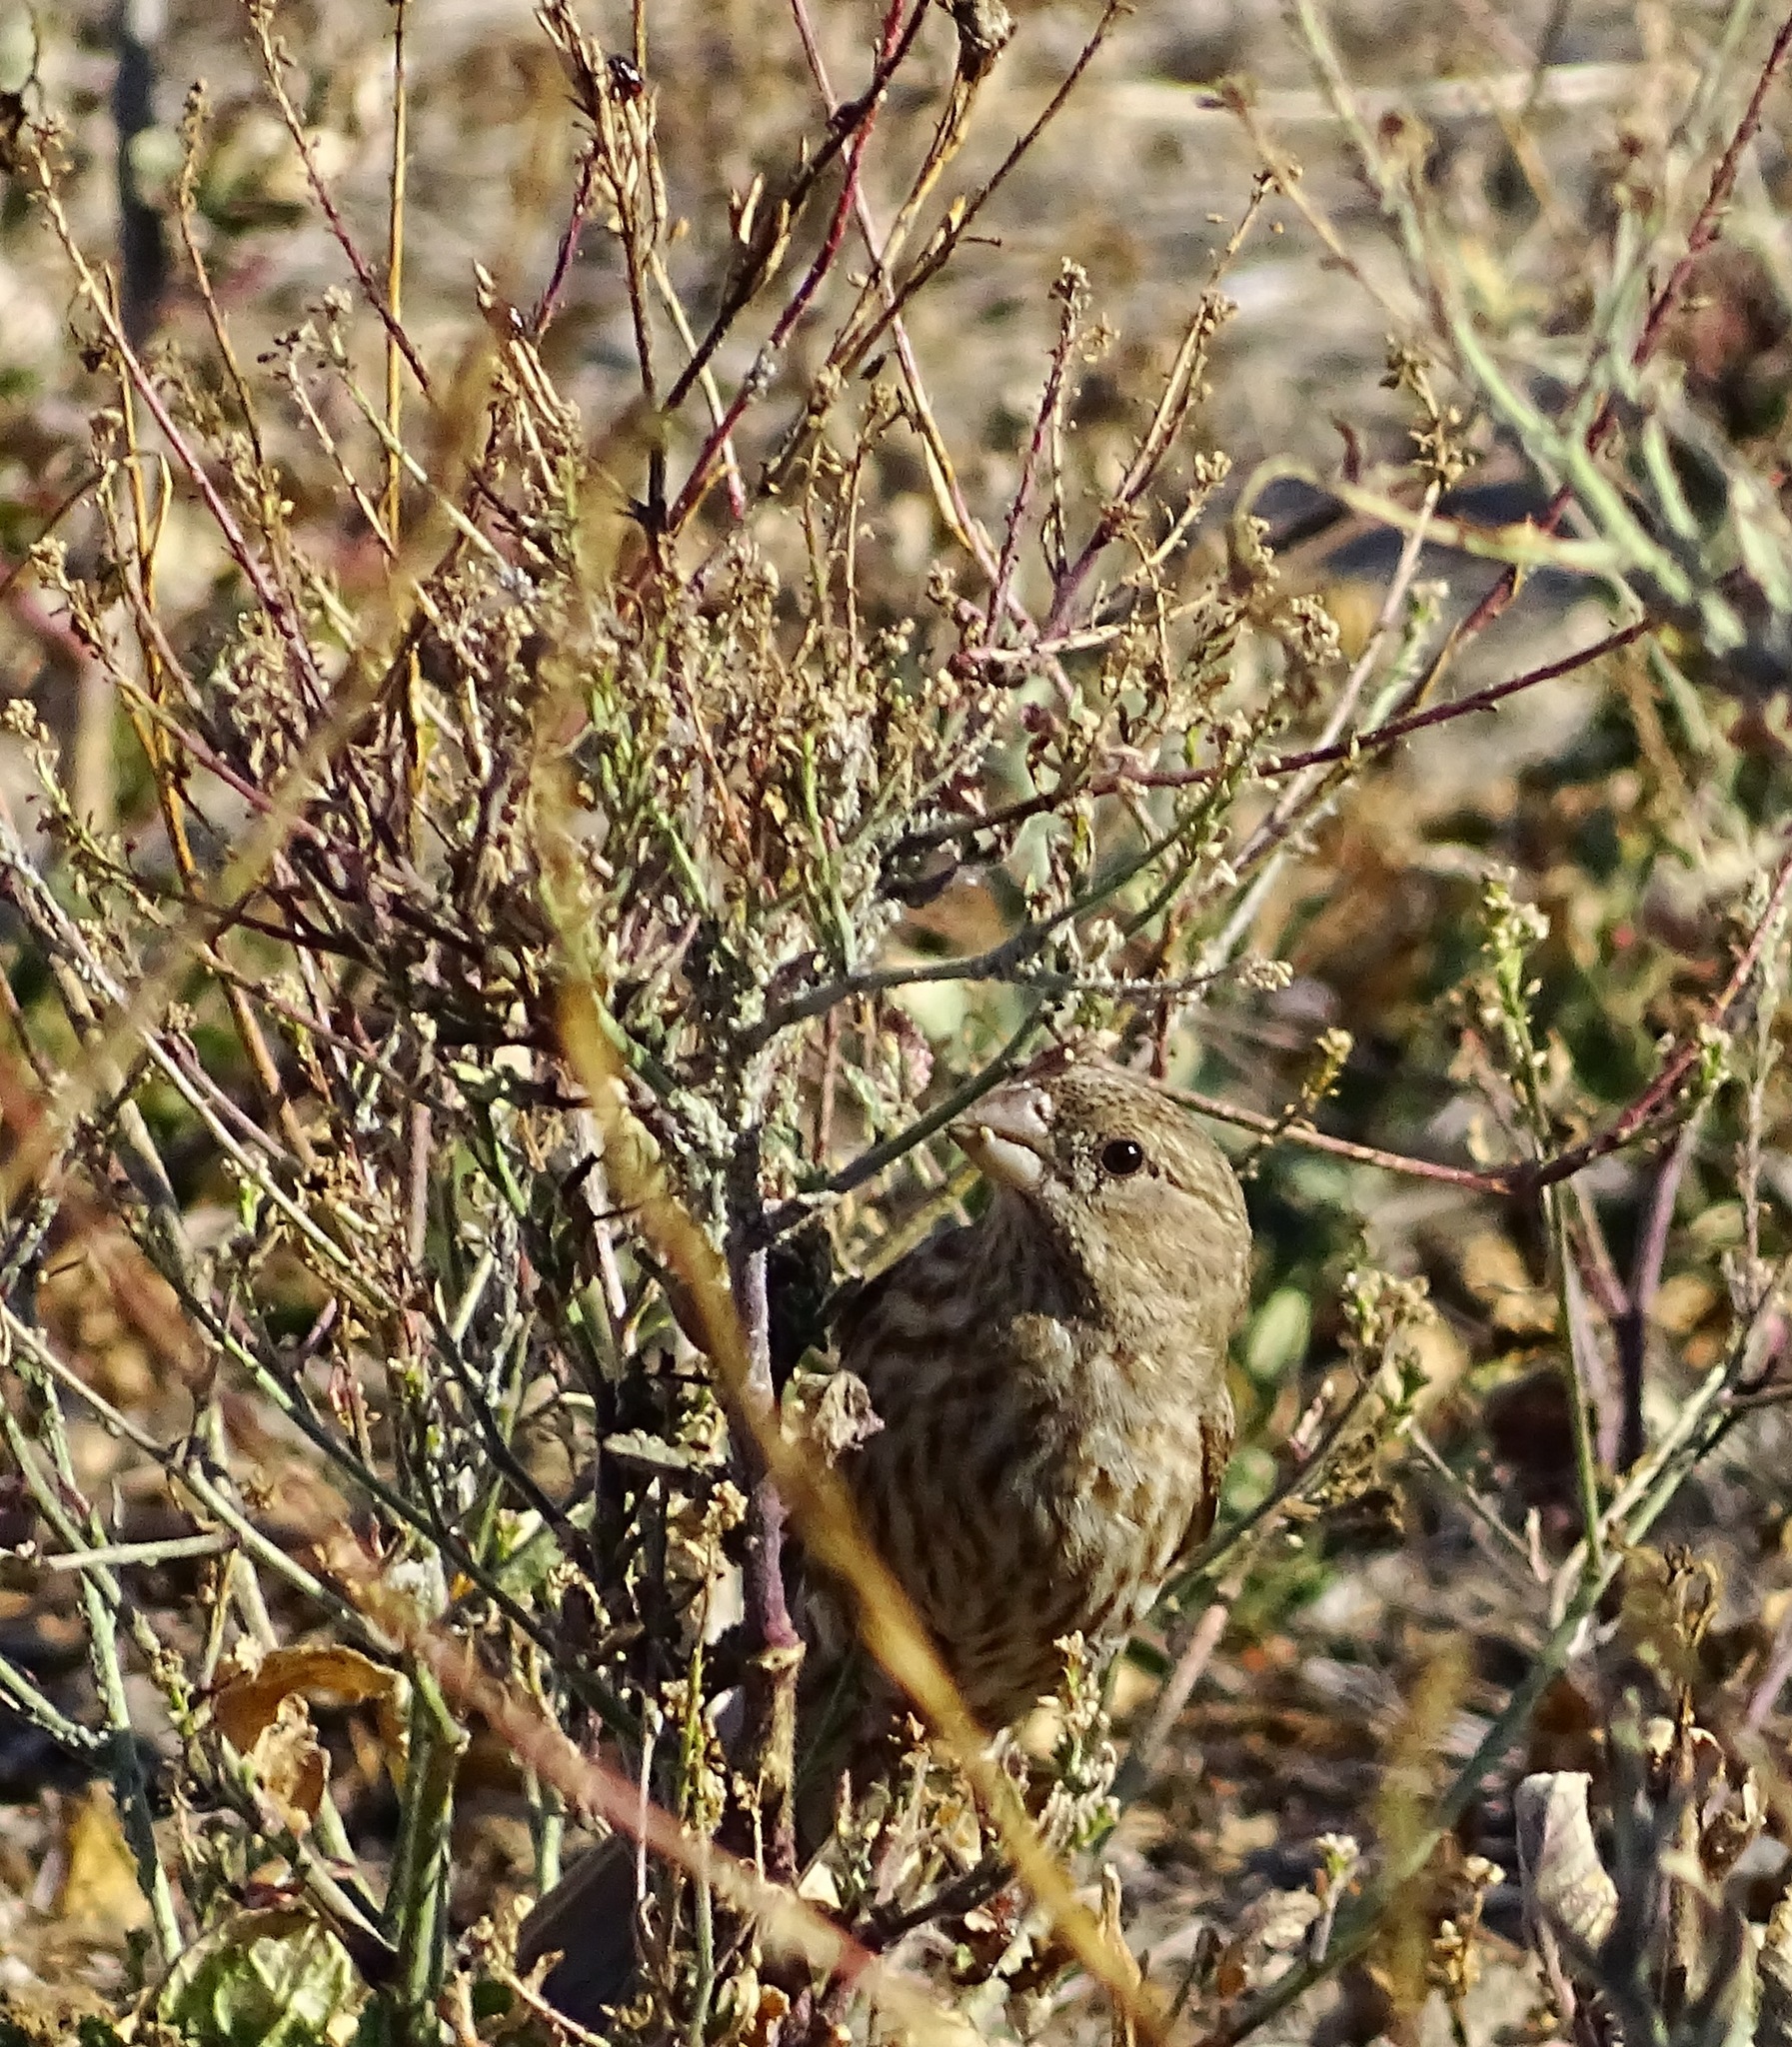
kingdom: Animalia
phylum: Chordata
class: Aves
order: Passeriformes
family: Fringillidae
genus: Haemorhous
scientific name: Haemorhous mexicanus
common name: House finch
